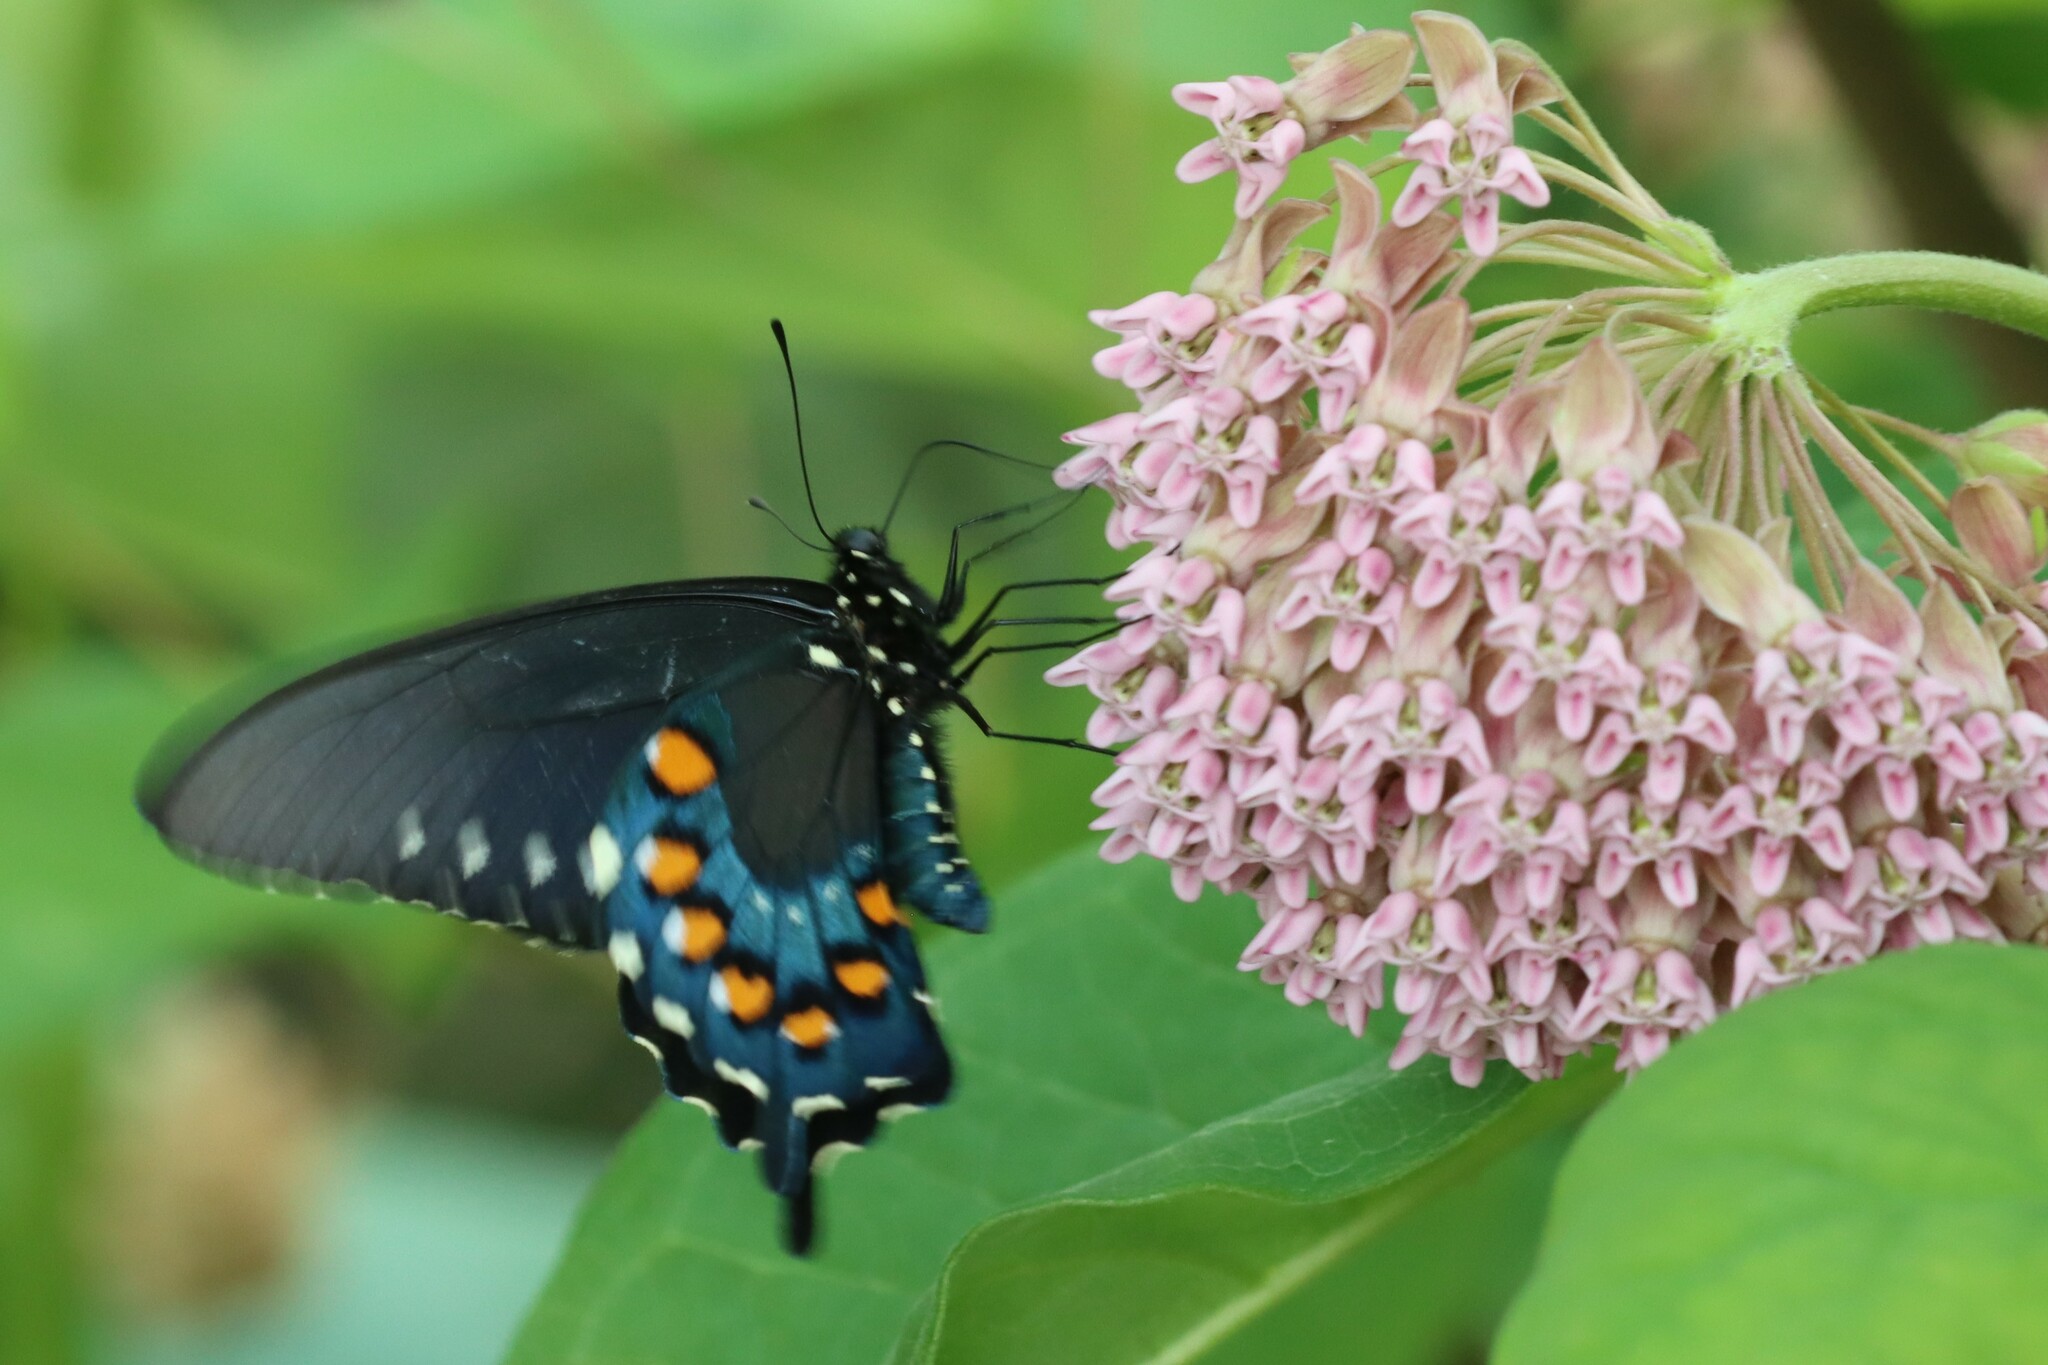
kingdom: Animalia
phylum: Arthropoda
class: Insecta
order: Lepidoptera
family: Papilionidae
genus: Battus
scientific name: Battus philenor
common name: Pipevine swallowtail
